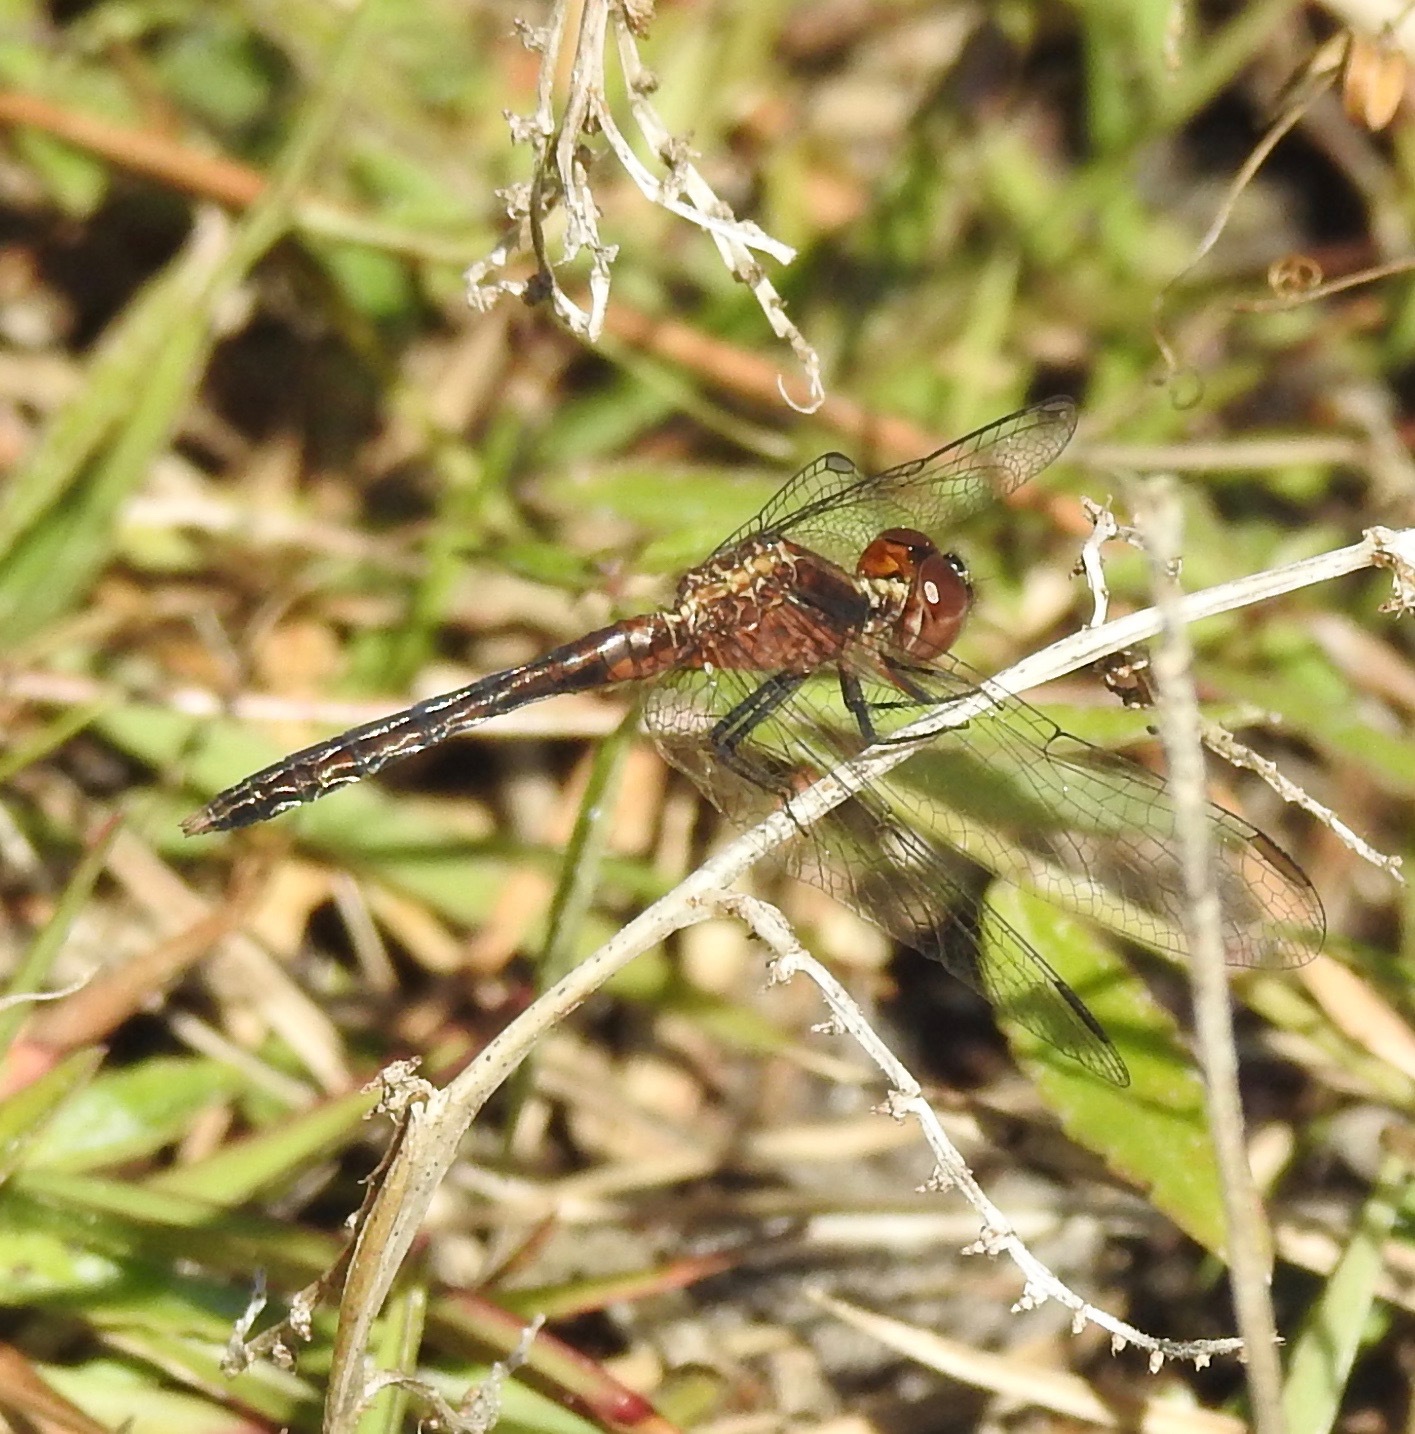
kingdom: Animalia
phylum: Arthropoda
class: Insecta
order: Odonata
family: Libellulidae
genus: Erythrodiplax
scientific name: Erythrodiplax minuscula
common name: Little blue dragonlet
